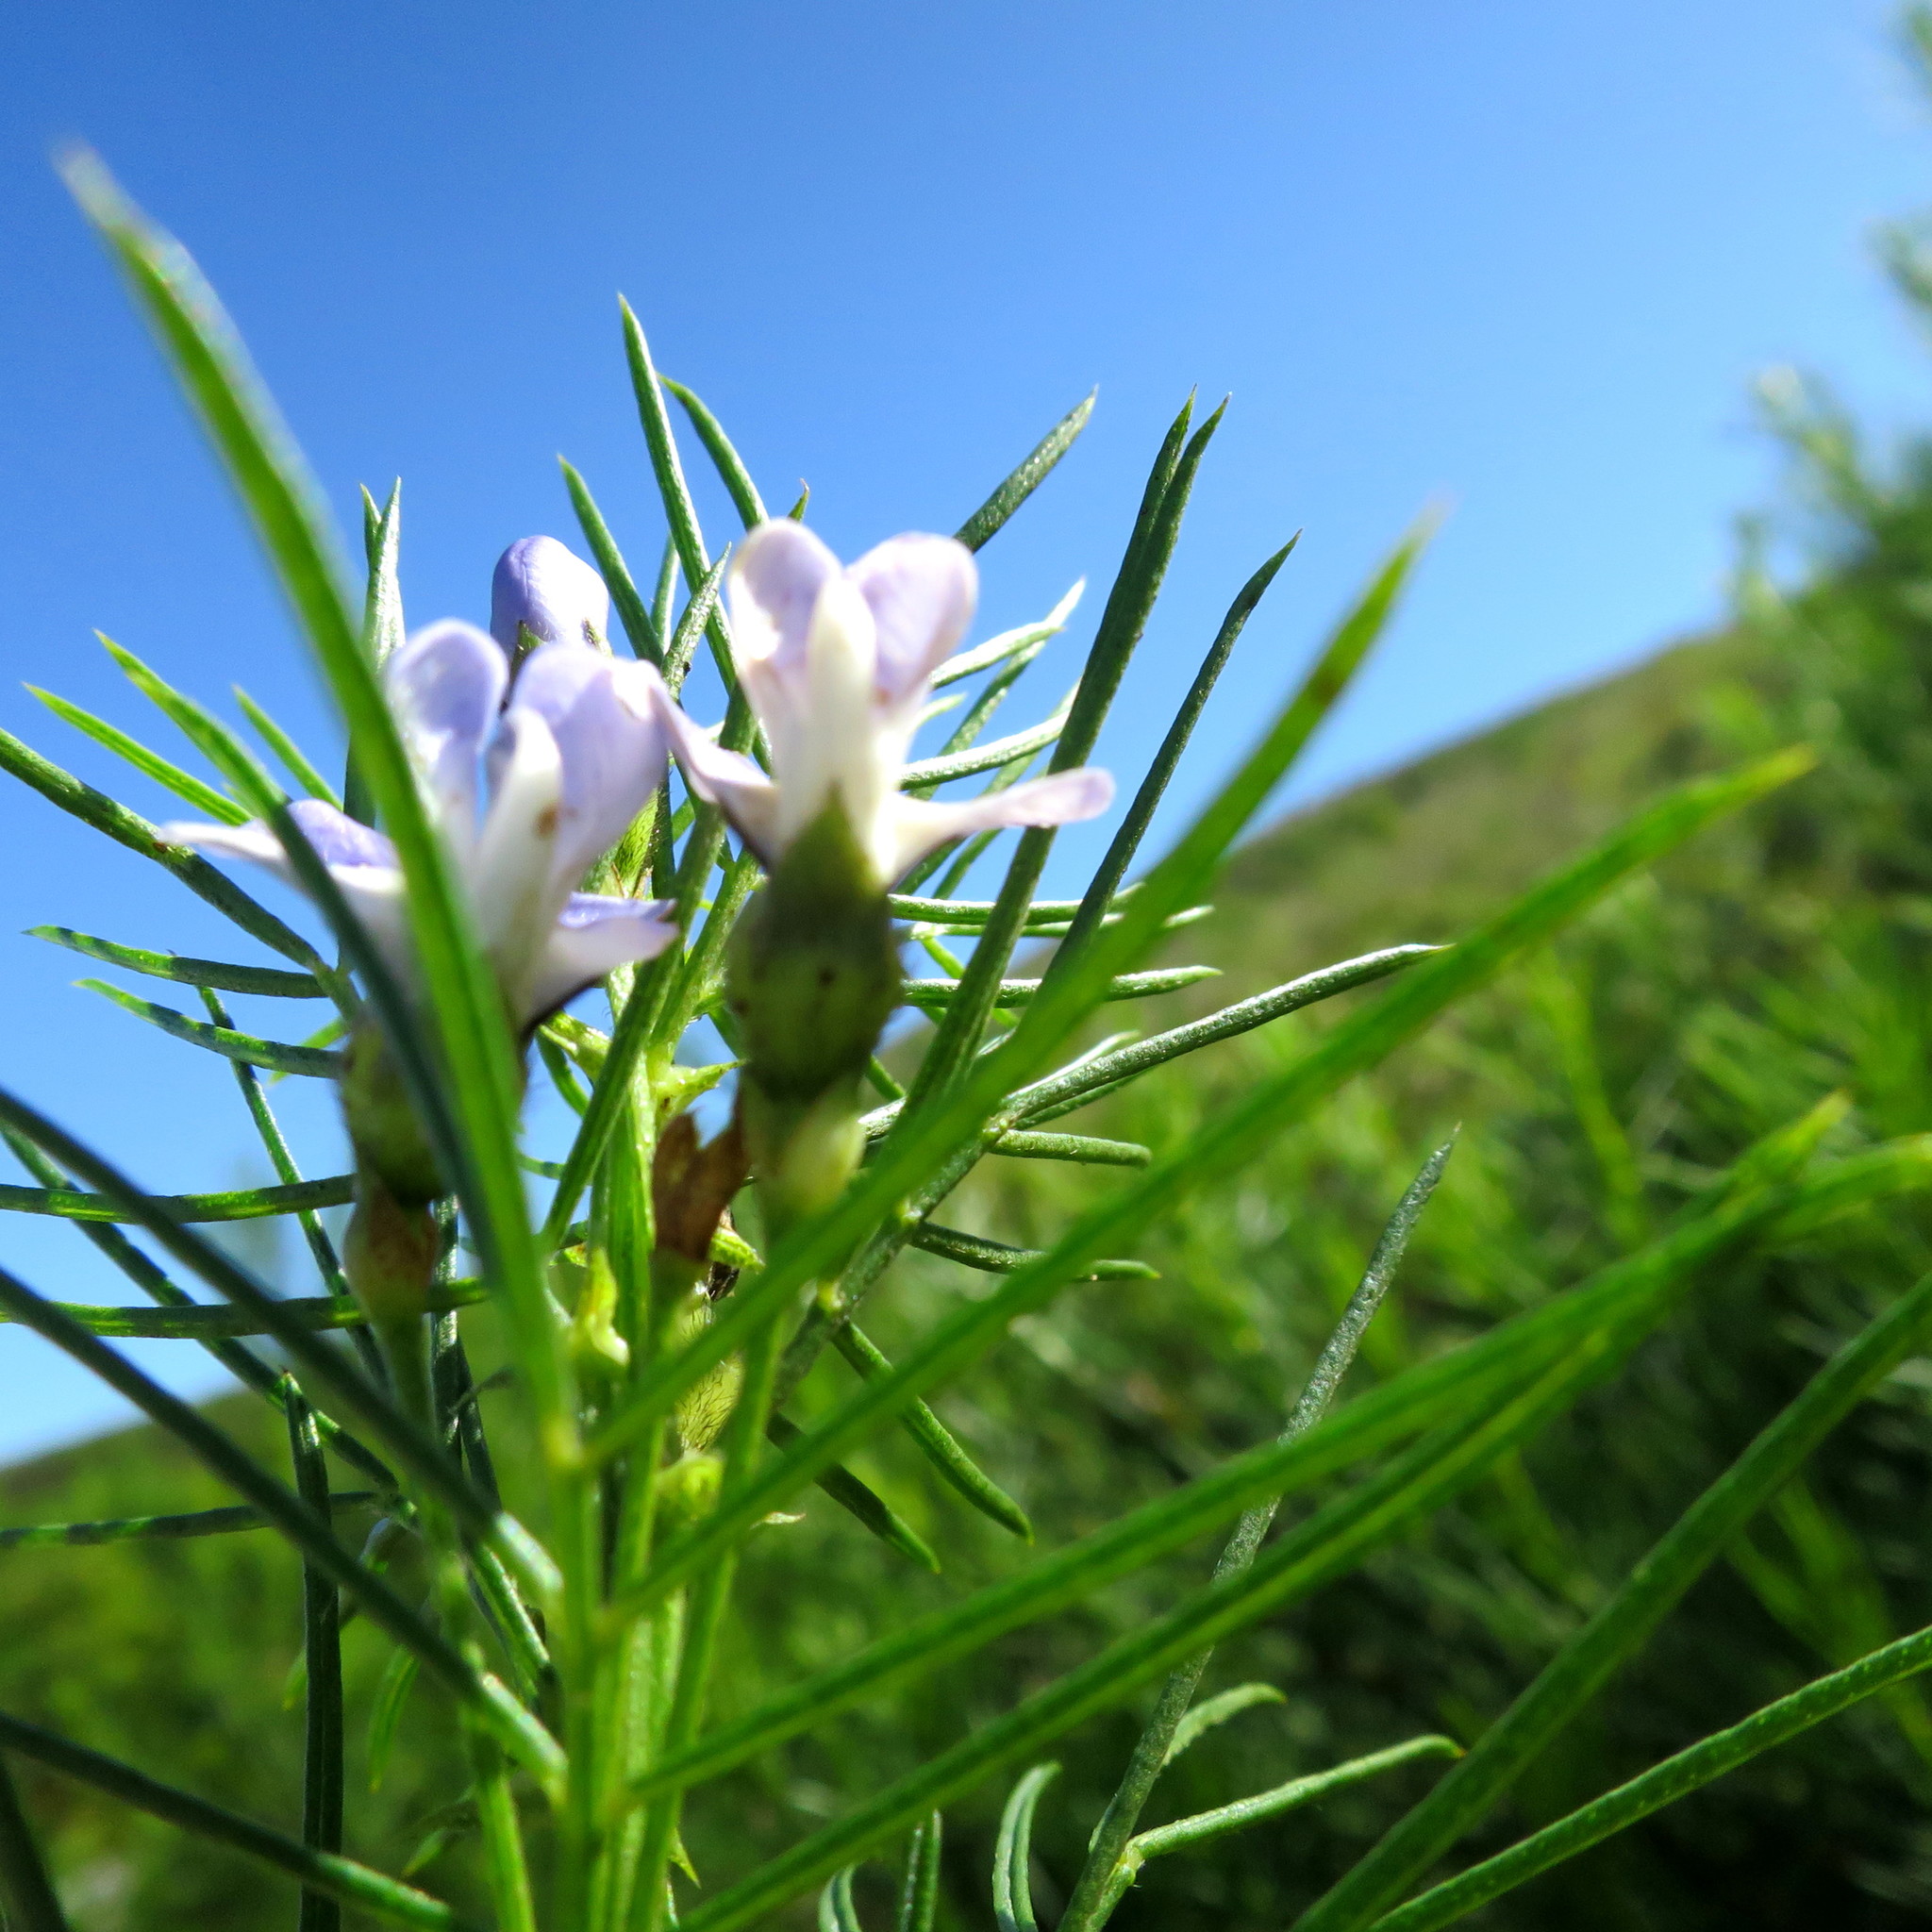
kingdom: Plantae
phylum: Tracheophyta
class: Magnoliopsida
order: Fabales
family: Fabaceae
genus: Psoralea
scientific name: Psoralea affinis
